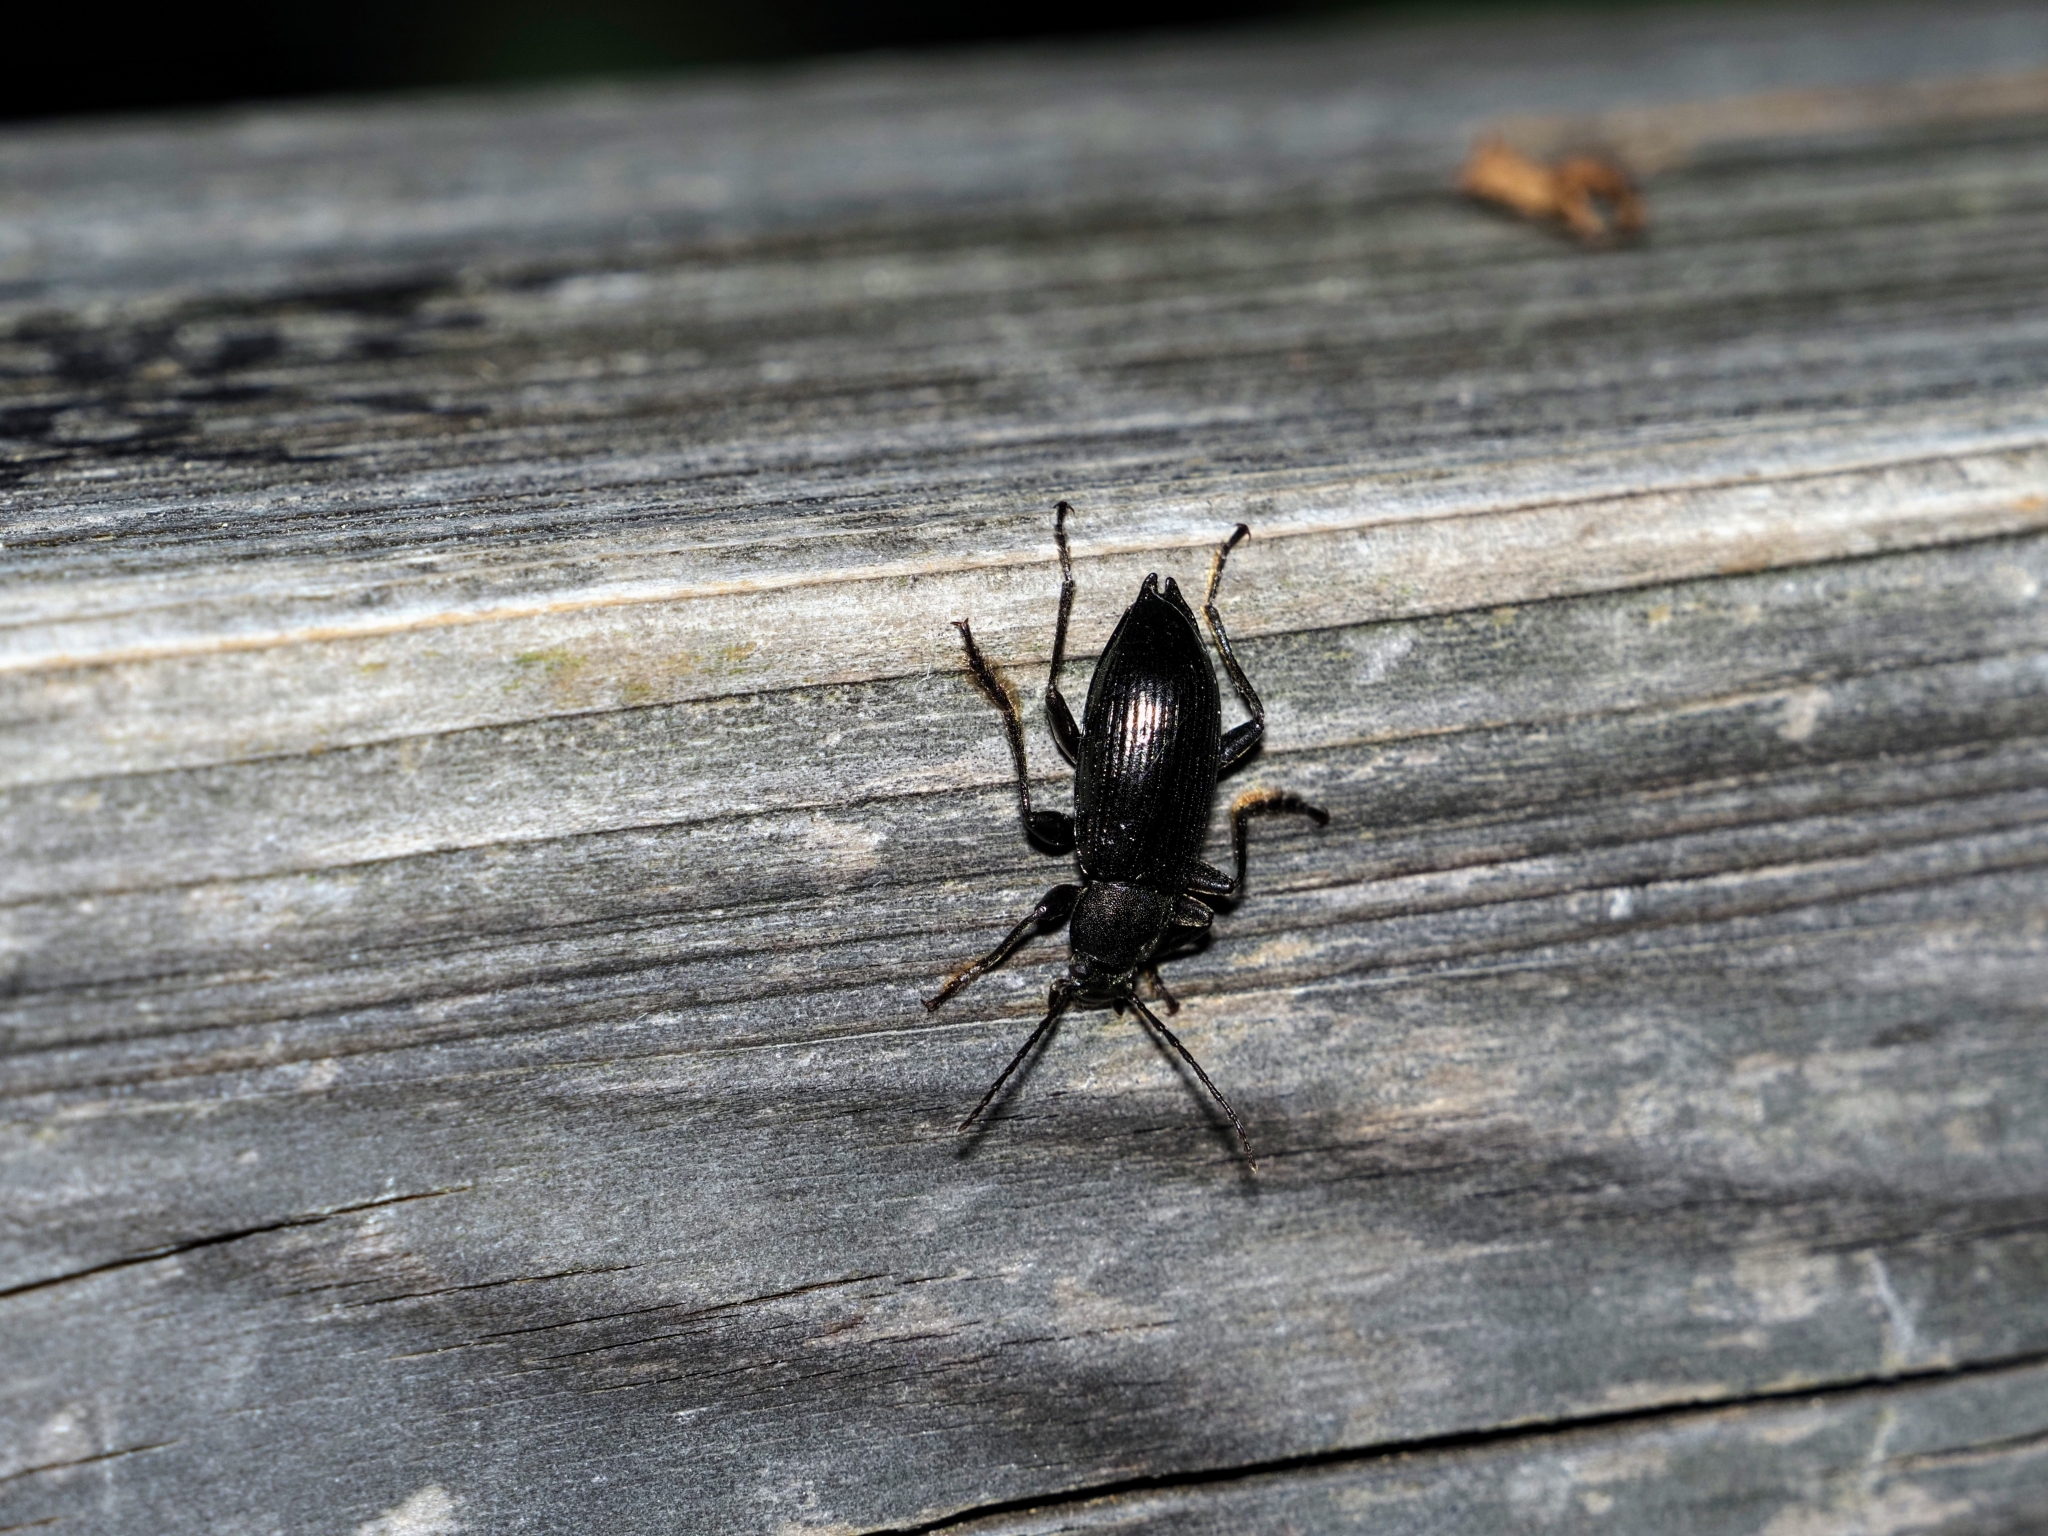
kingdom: Animalia
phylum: Arthropoda
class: Insecta
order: Coleoptera
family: Tenebrionidae
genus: Stenomax
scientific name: Stenomax aeneus
